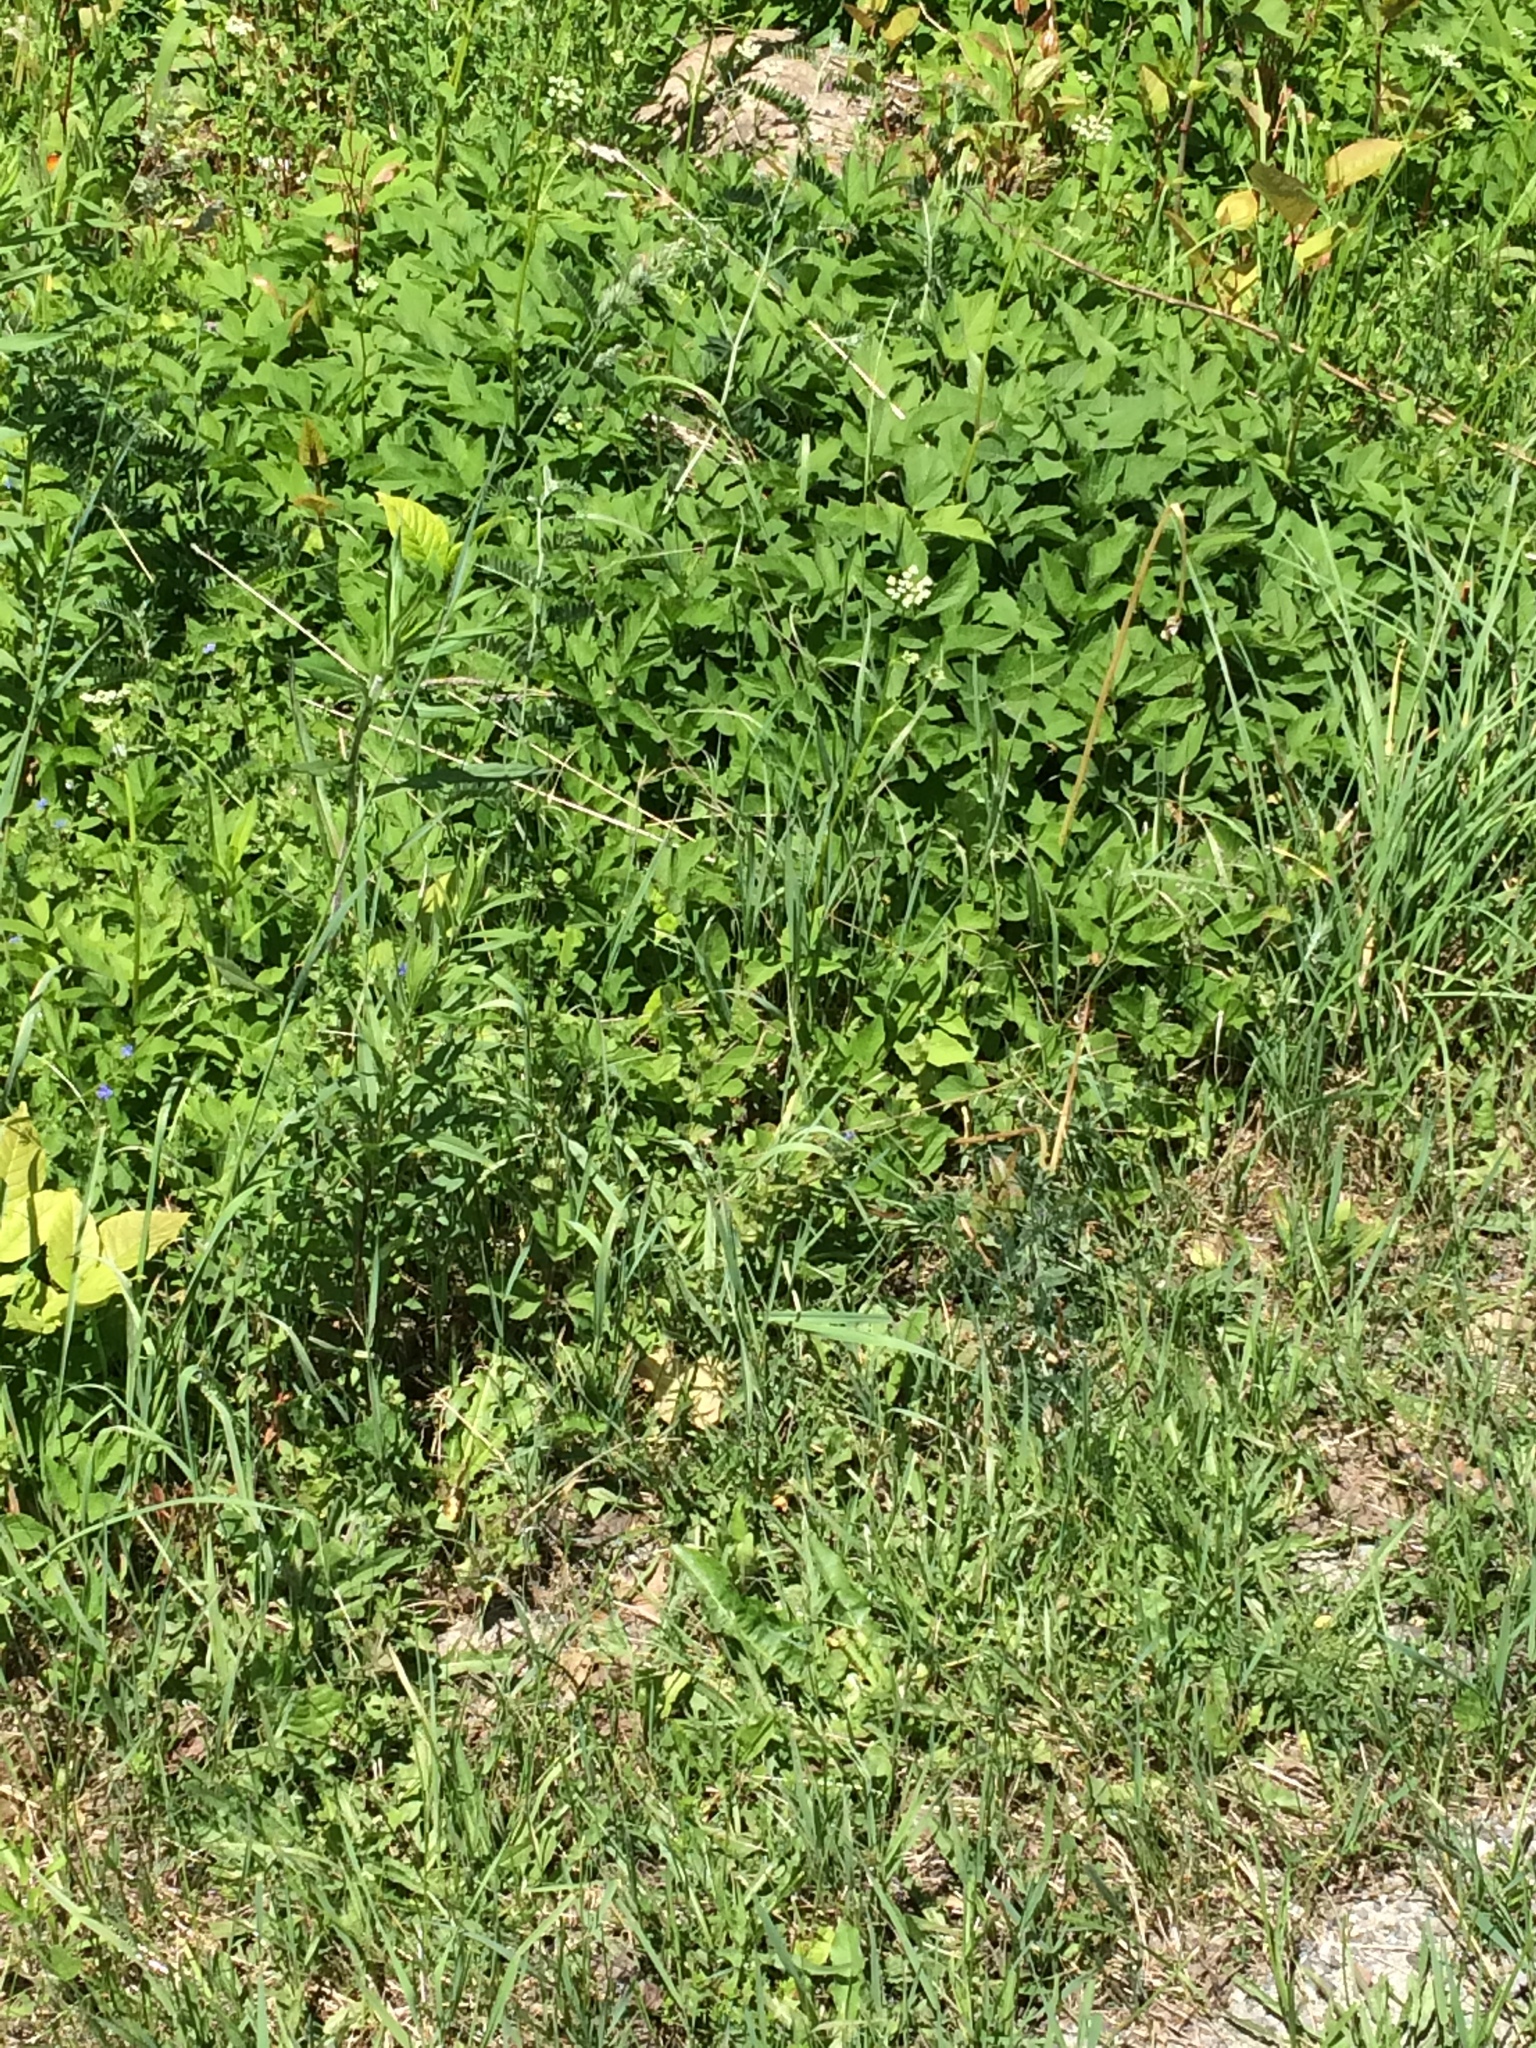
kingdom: Plantae
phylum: Tracheophyta
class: Magnoliopsida
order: Apiales
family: Apiaceae
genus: Aegopodium
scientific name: Aegopodium podagraria
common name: Ground-elder
